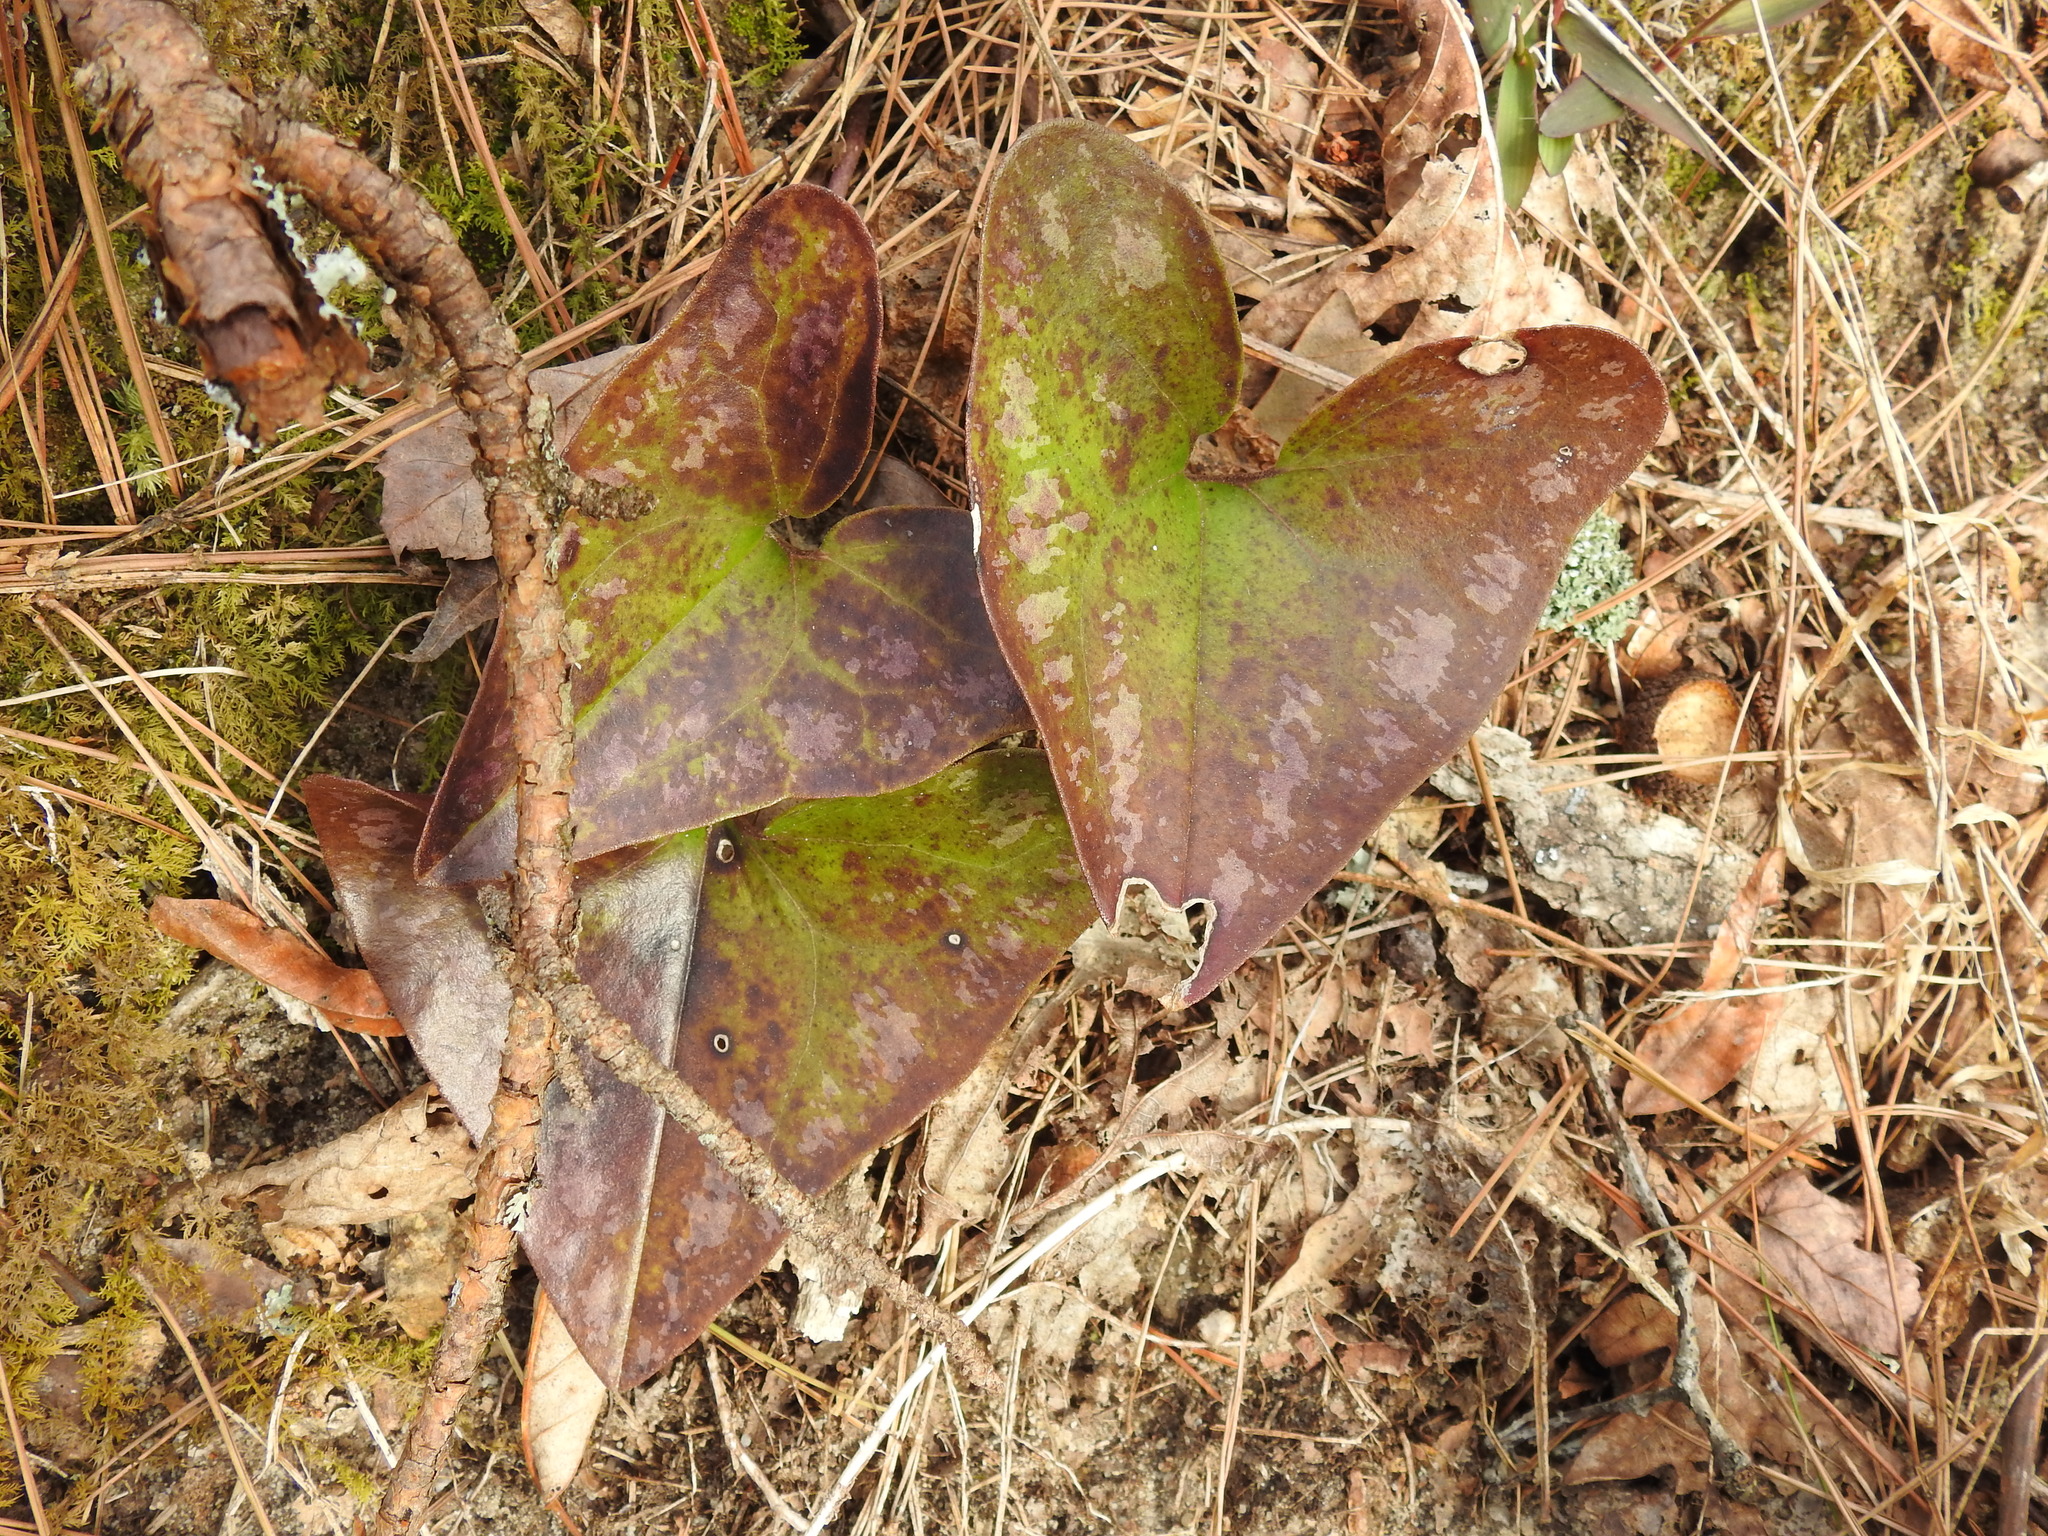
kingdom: Plantae
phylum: Tracheophyta
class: Magnoliopsida
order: Piperales
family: Aristolochiaceae
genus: Hexastylis
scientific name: Hexastylis arifolia
